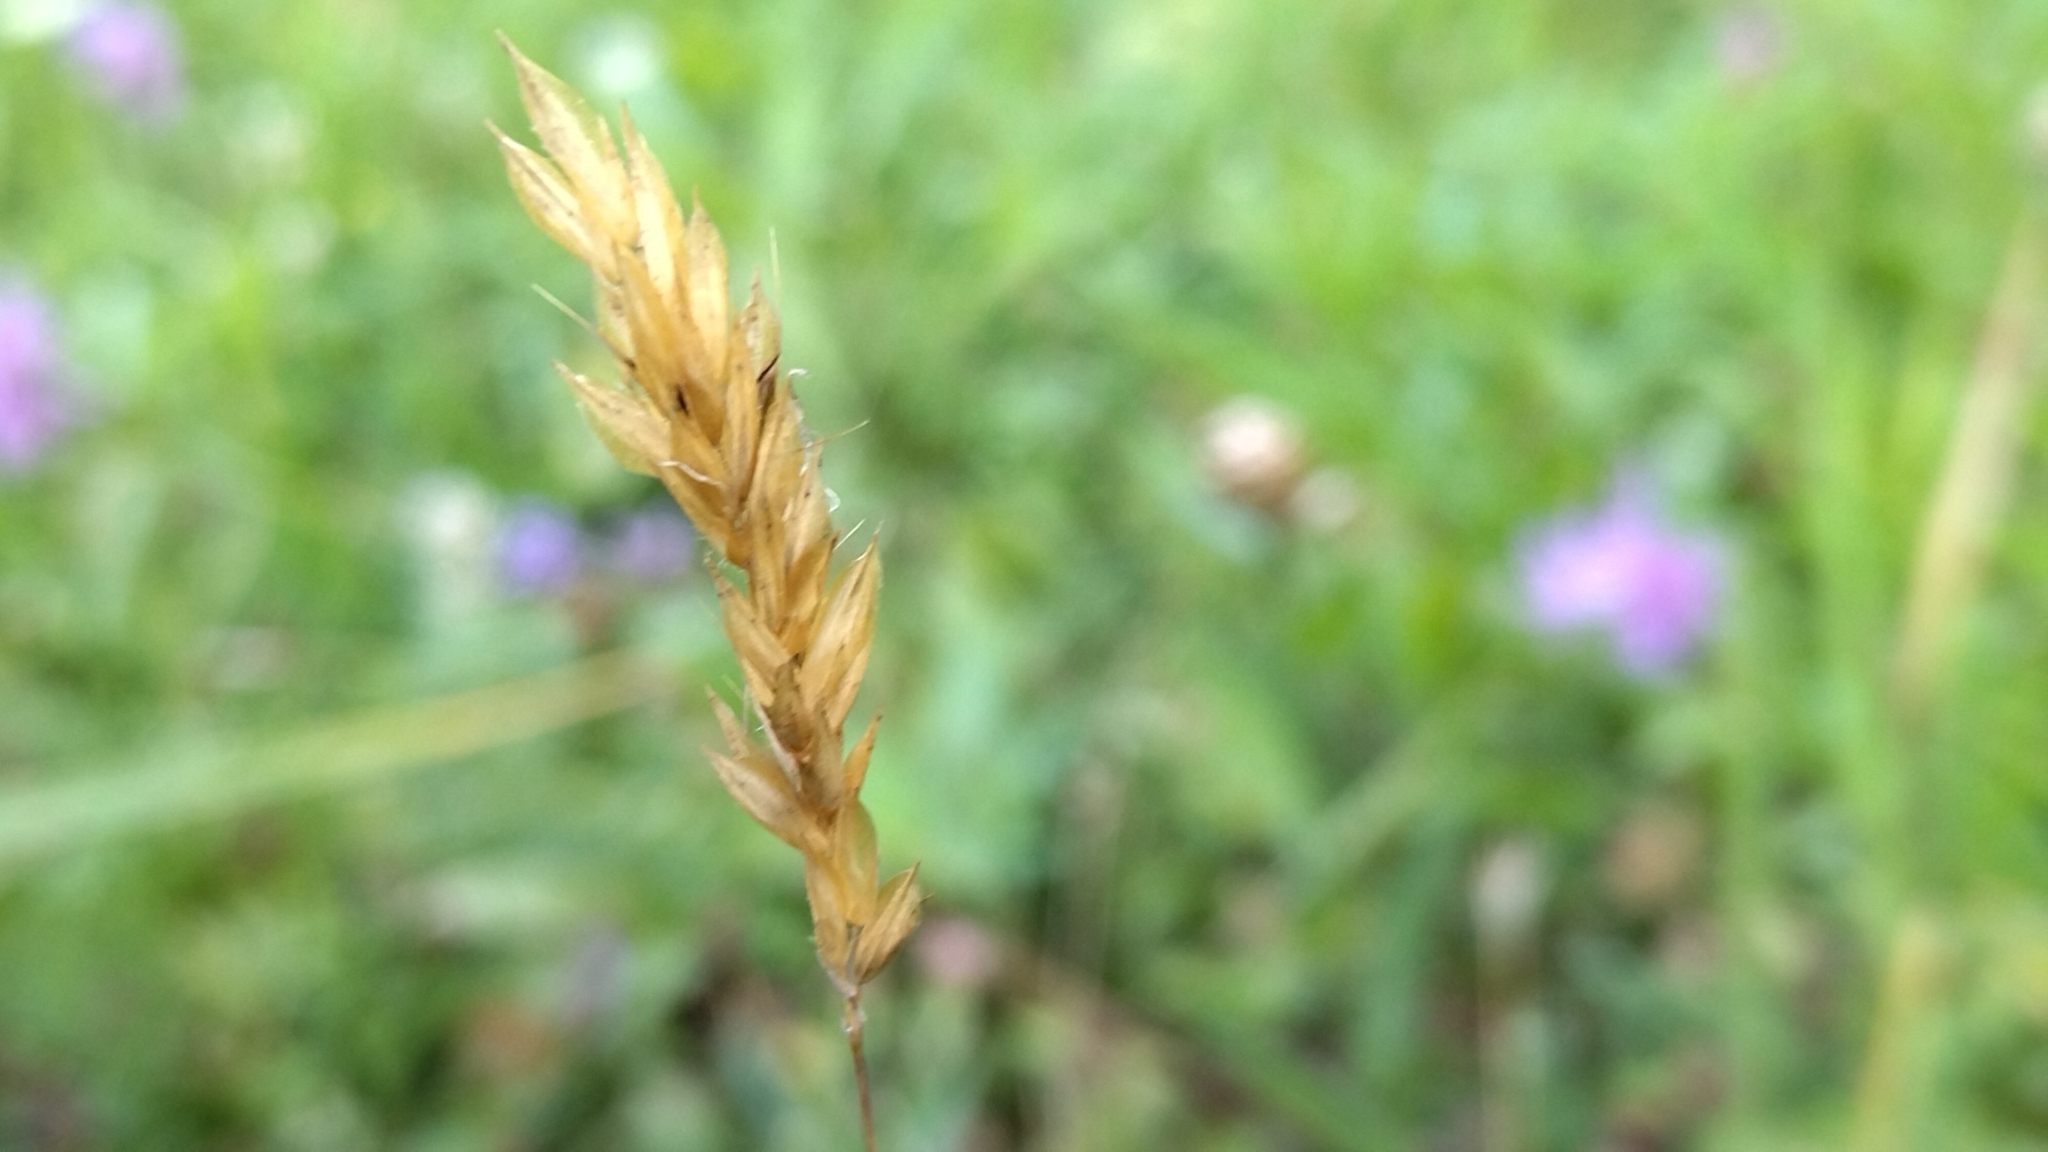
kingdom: Plantae
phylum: Tracheophyta
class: Liliopsida
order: Poales
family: Poaceae
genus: Anthoxanthum
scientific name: Anthoxanthum odoratum
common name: Sweet vernalgrass
